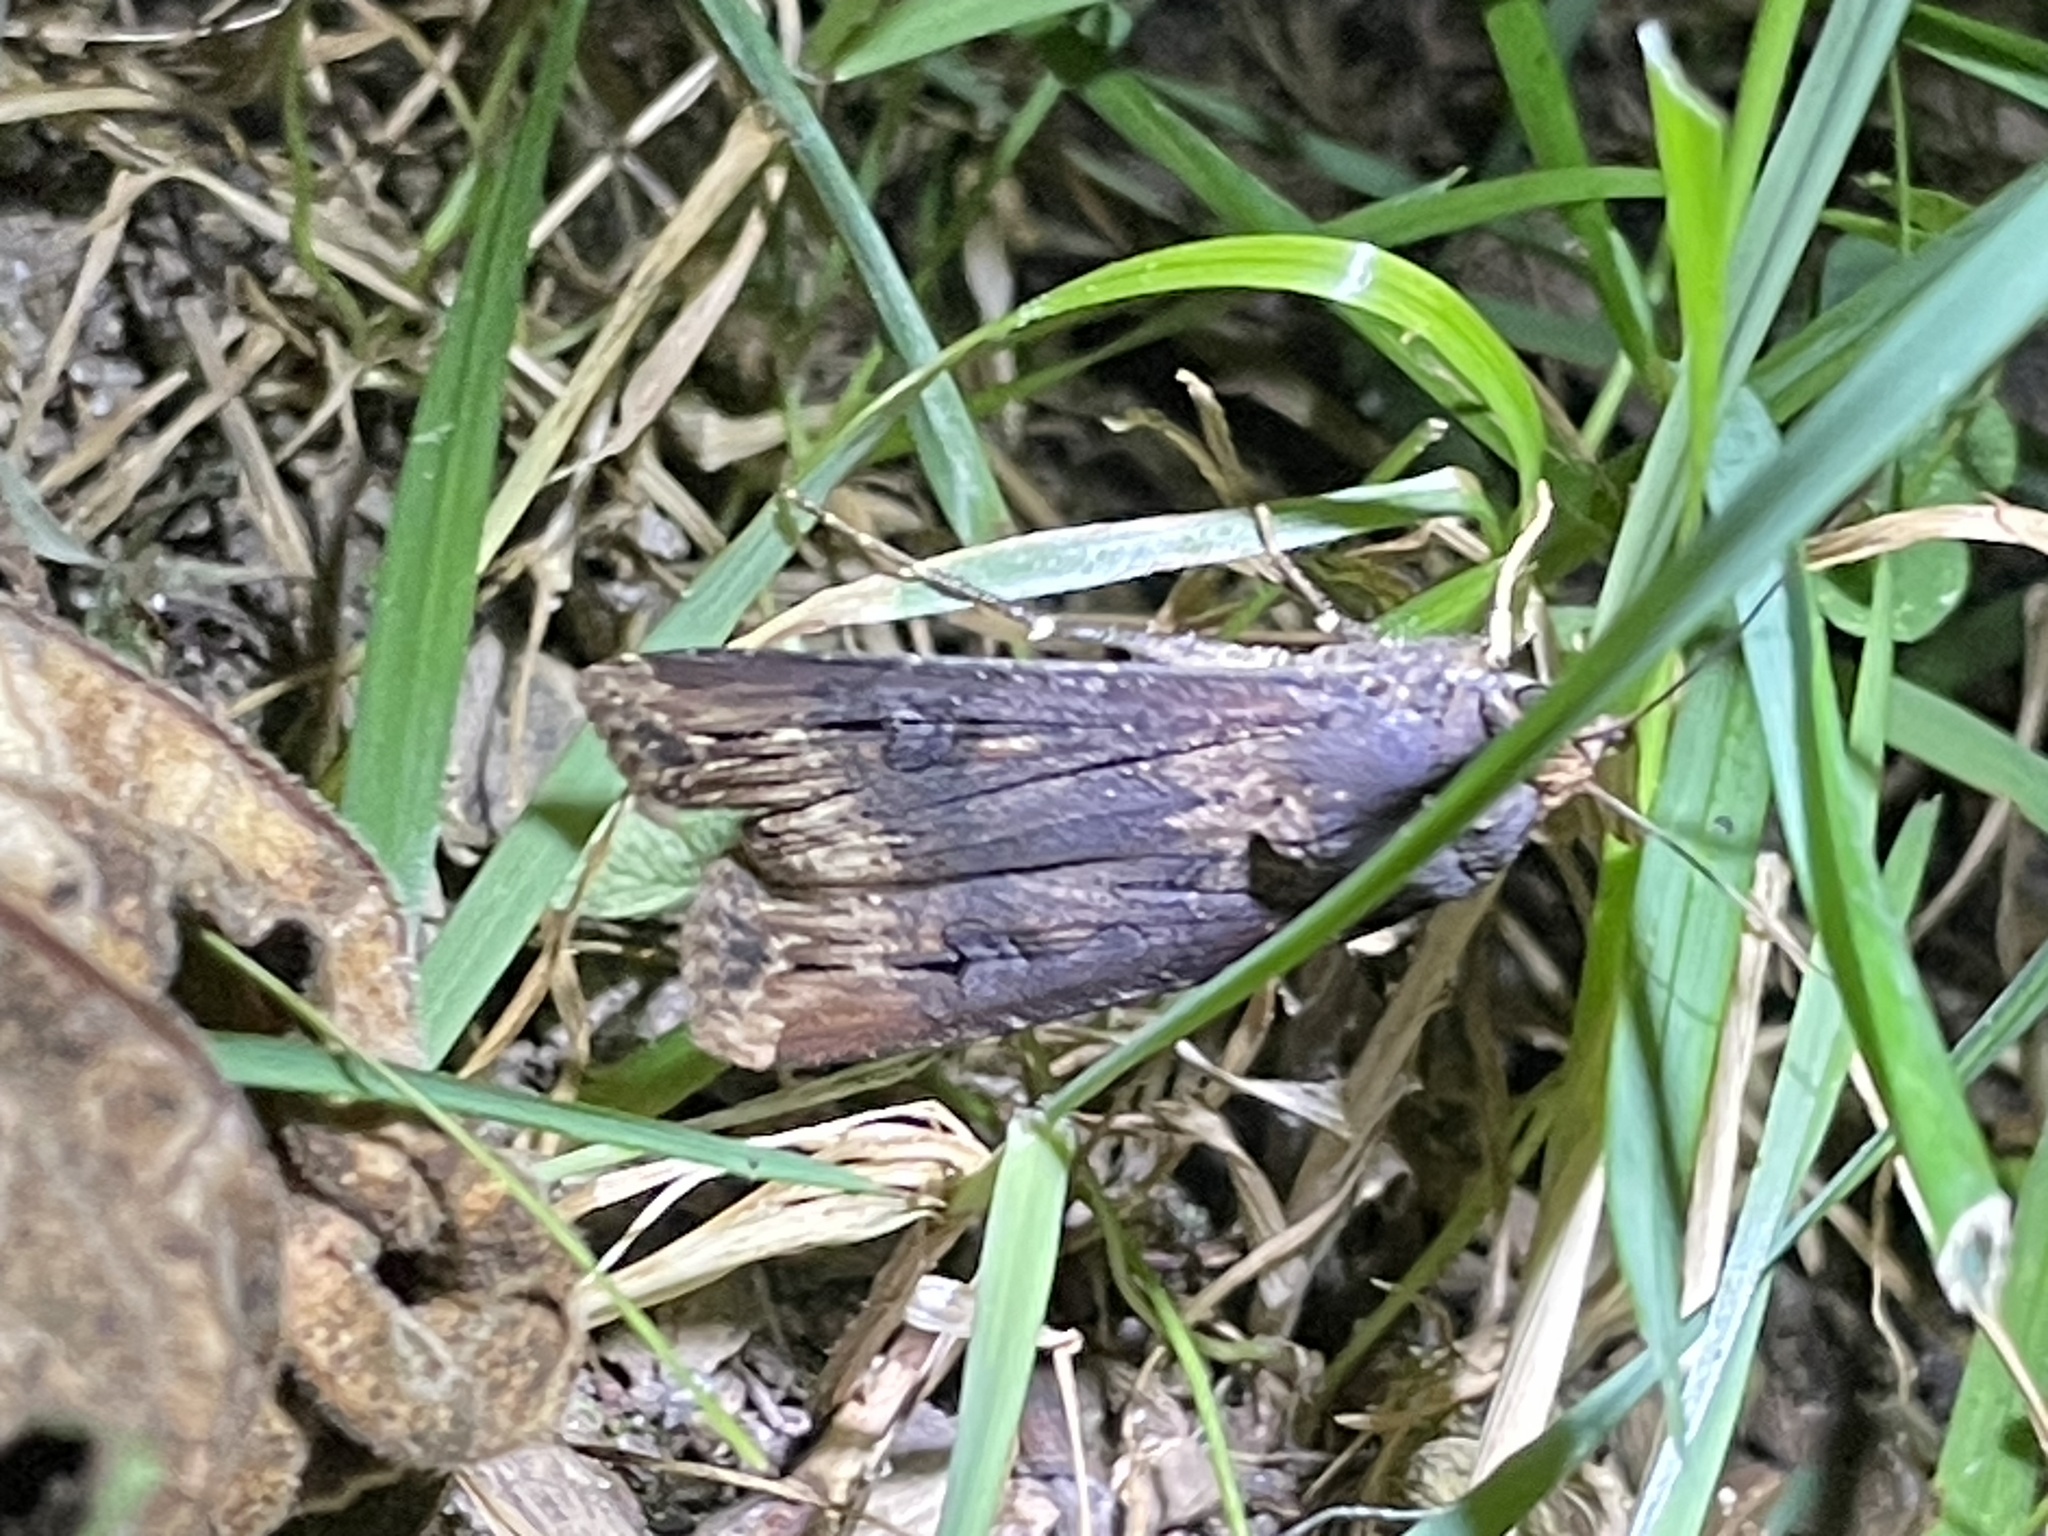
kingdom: Animalia
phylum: Arthropoda
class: Insecta
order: Lepidoptera
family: Noctuidae
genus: Agrotis
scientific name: Agrotis ipsilon
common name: Dark sword-grass
